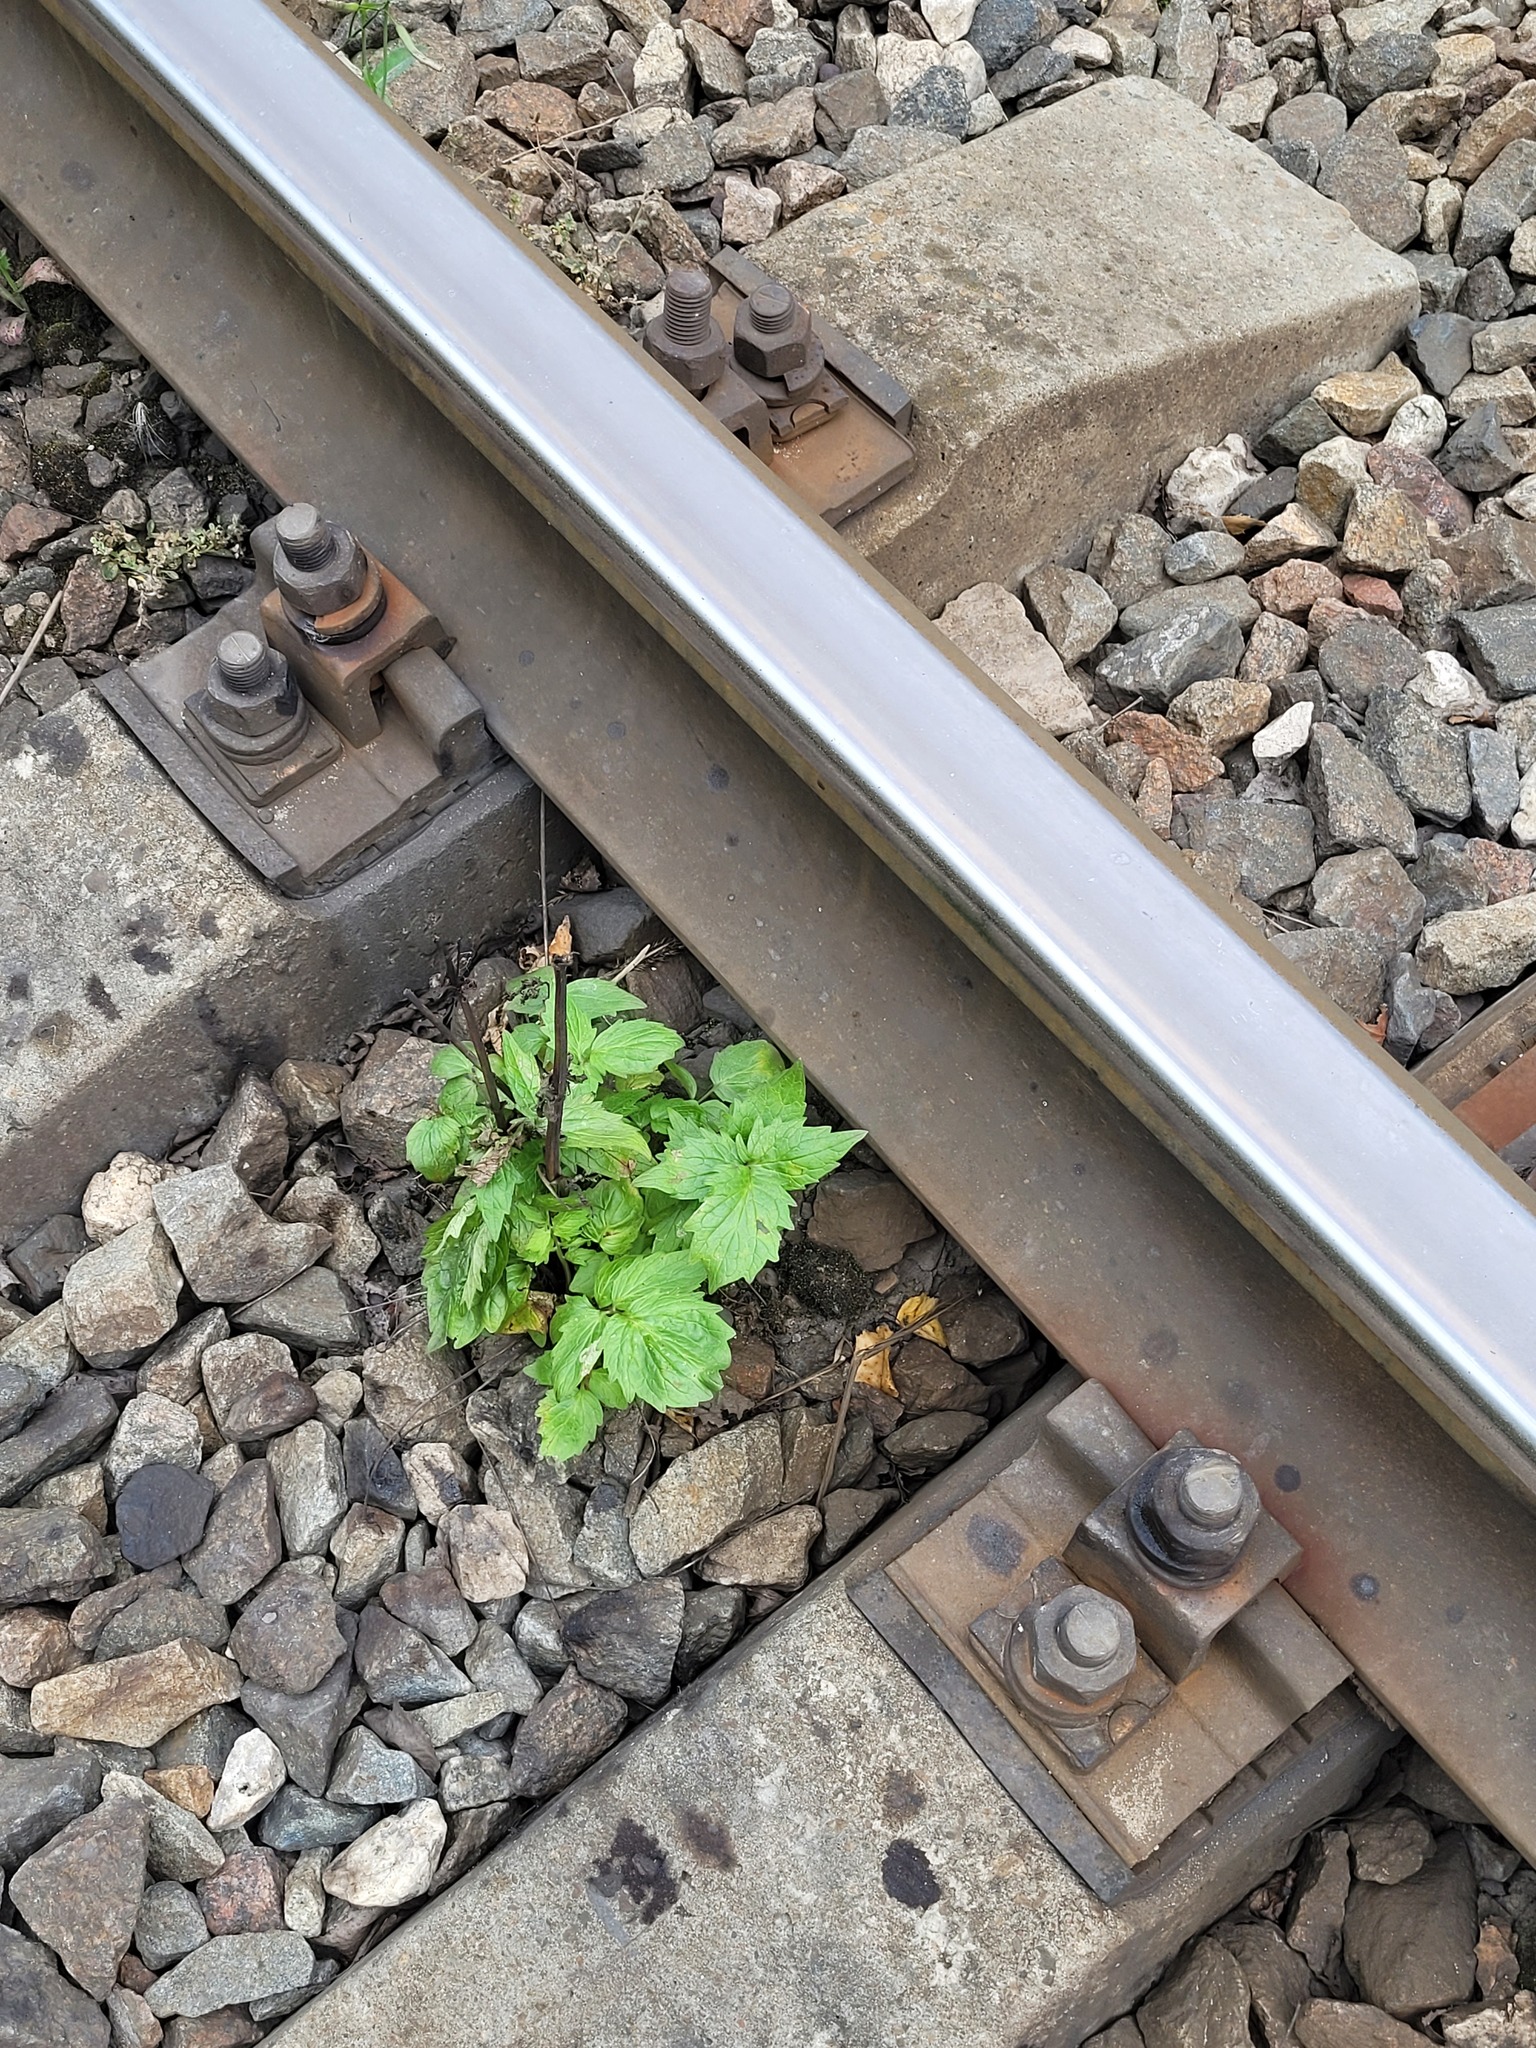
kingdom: Plantae
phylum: Tracheophyta
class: Magnoliopsida
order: Dipsacales
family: Caprifoliaceae
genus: Valeriana
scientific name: Valeriana officinalis
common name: Common valerian
